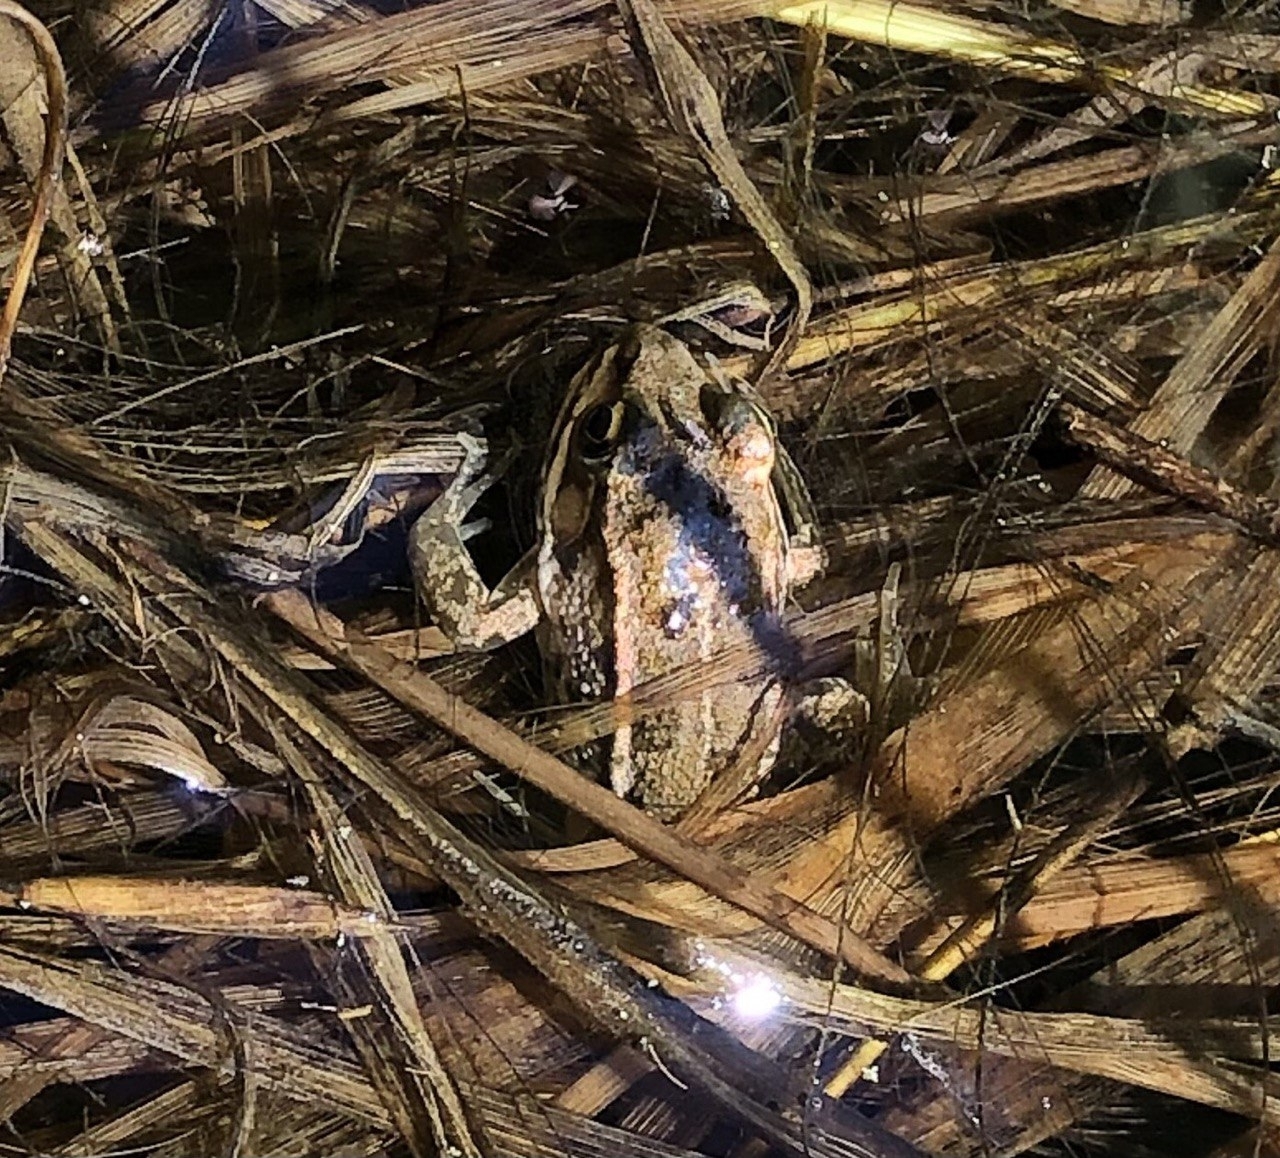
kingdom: Animalia
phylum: Chordata
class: Amphibia
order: Anura
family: Ranidae
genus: Pelophylax
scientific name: Pelophylax
